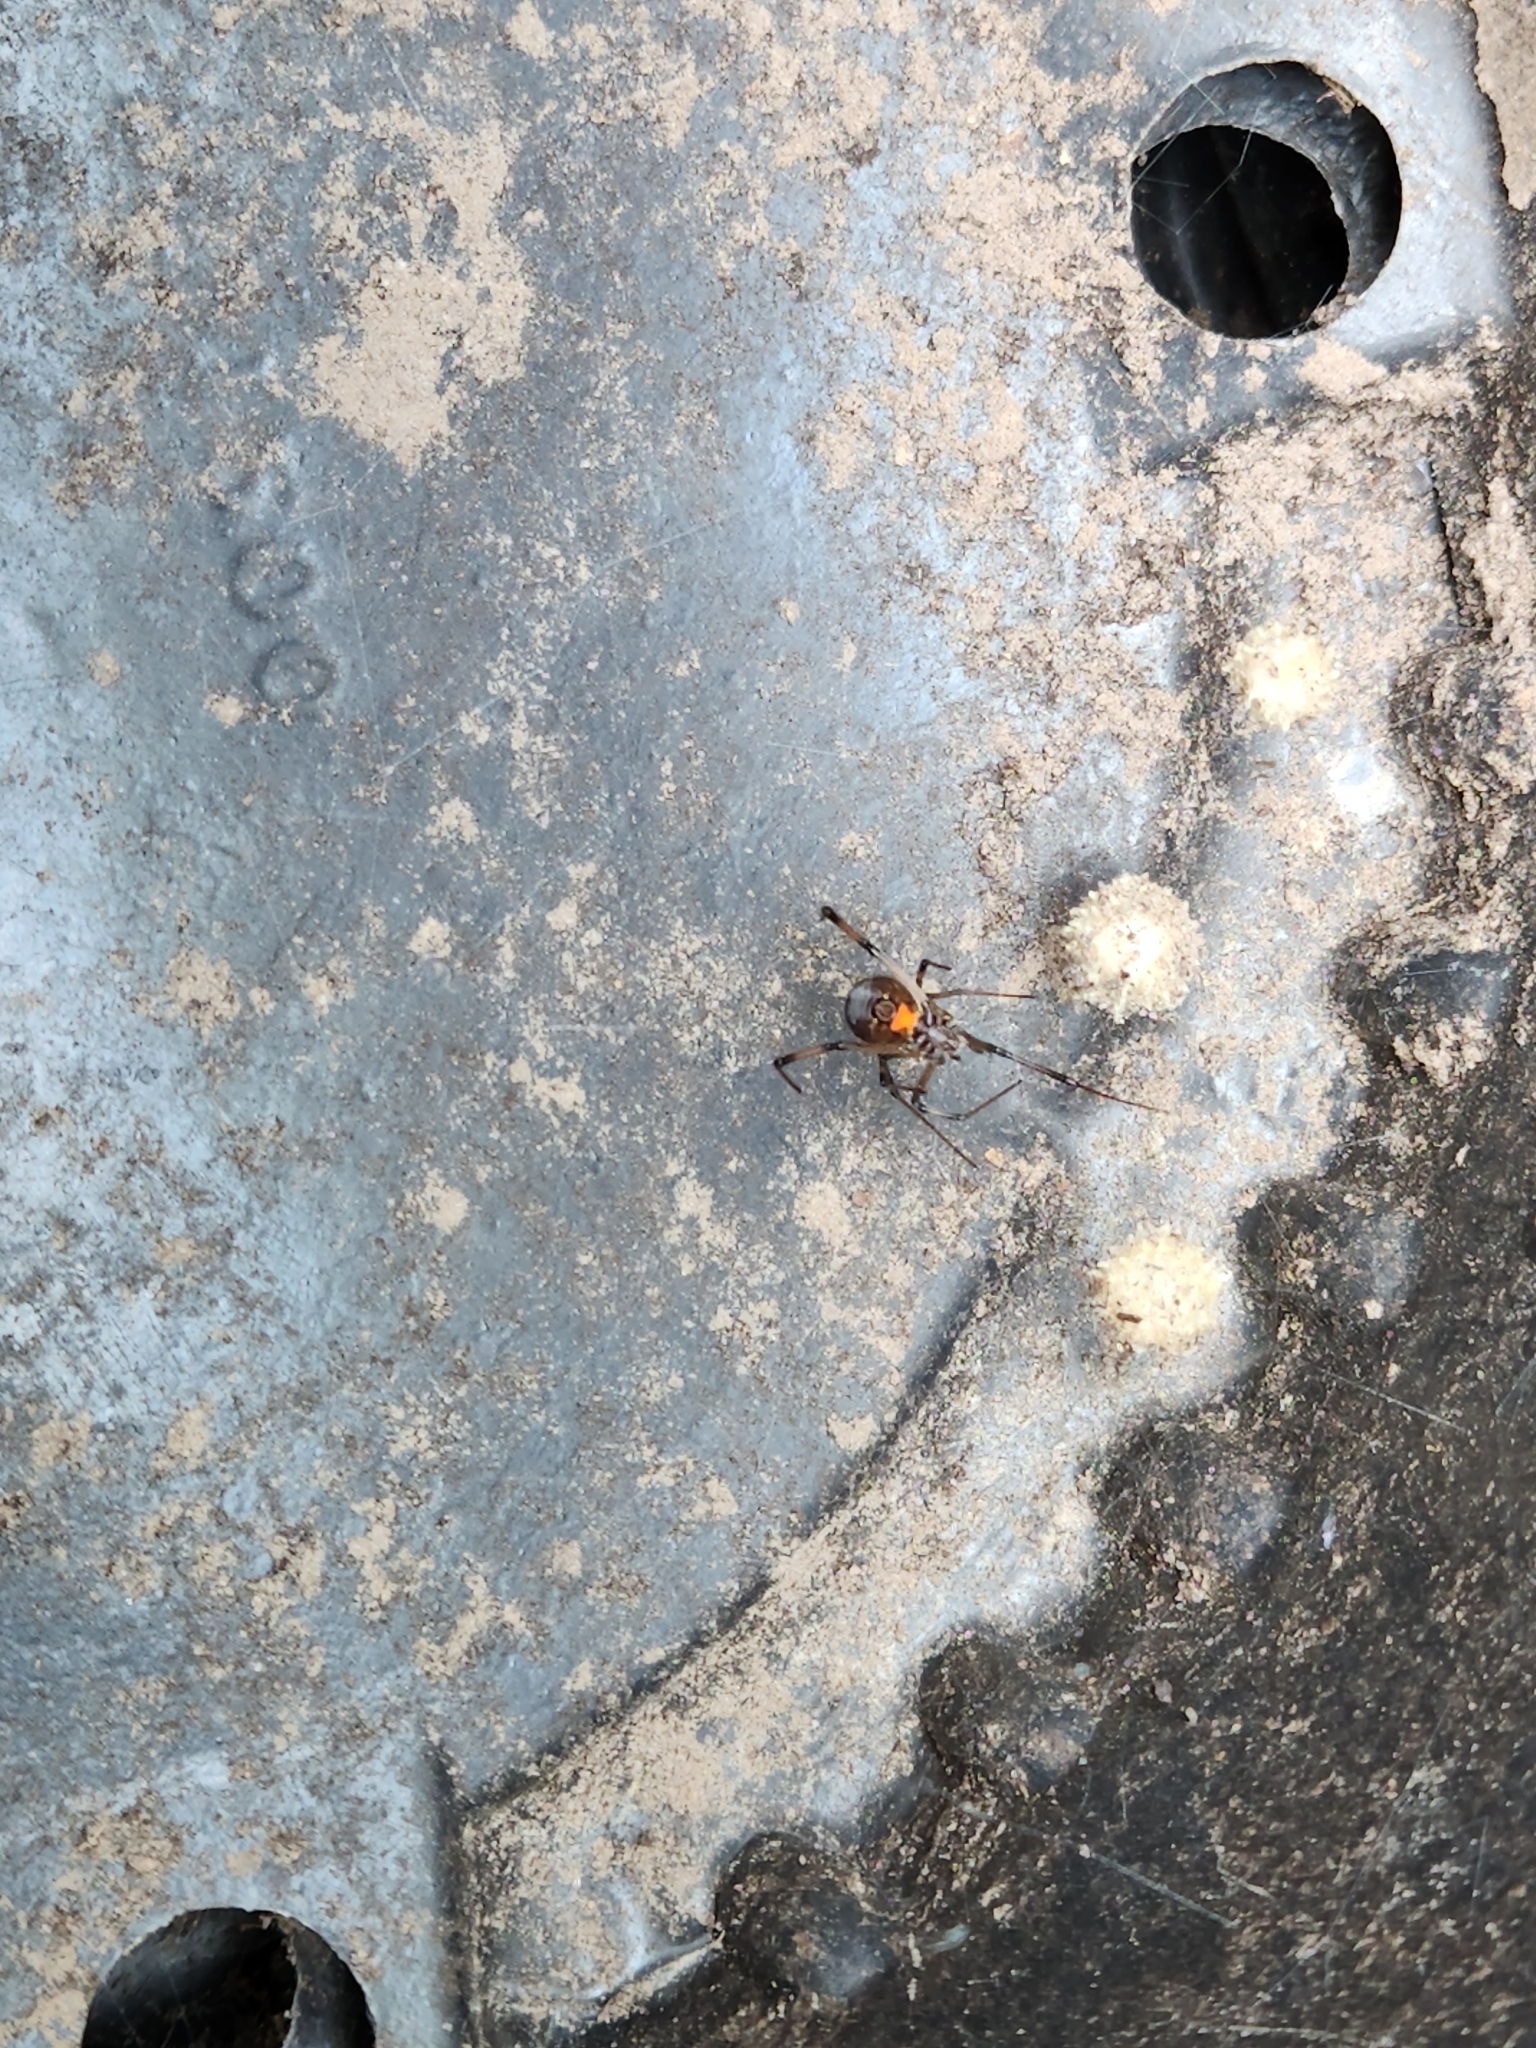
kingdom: Animalia
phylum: Arthropoda
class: Arachnida
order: Araneae
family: Theridiidae
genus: Latrodectus
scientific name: Latrodectus geometricus
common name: Brown widow spider
